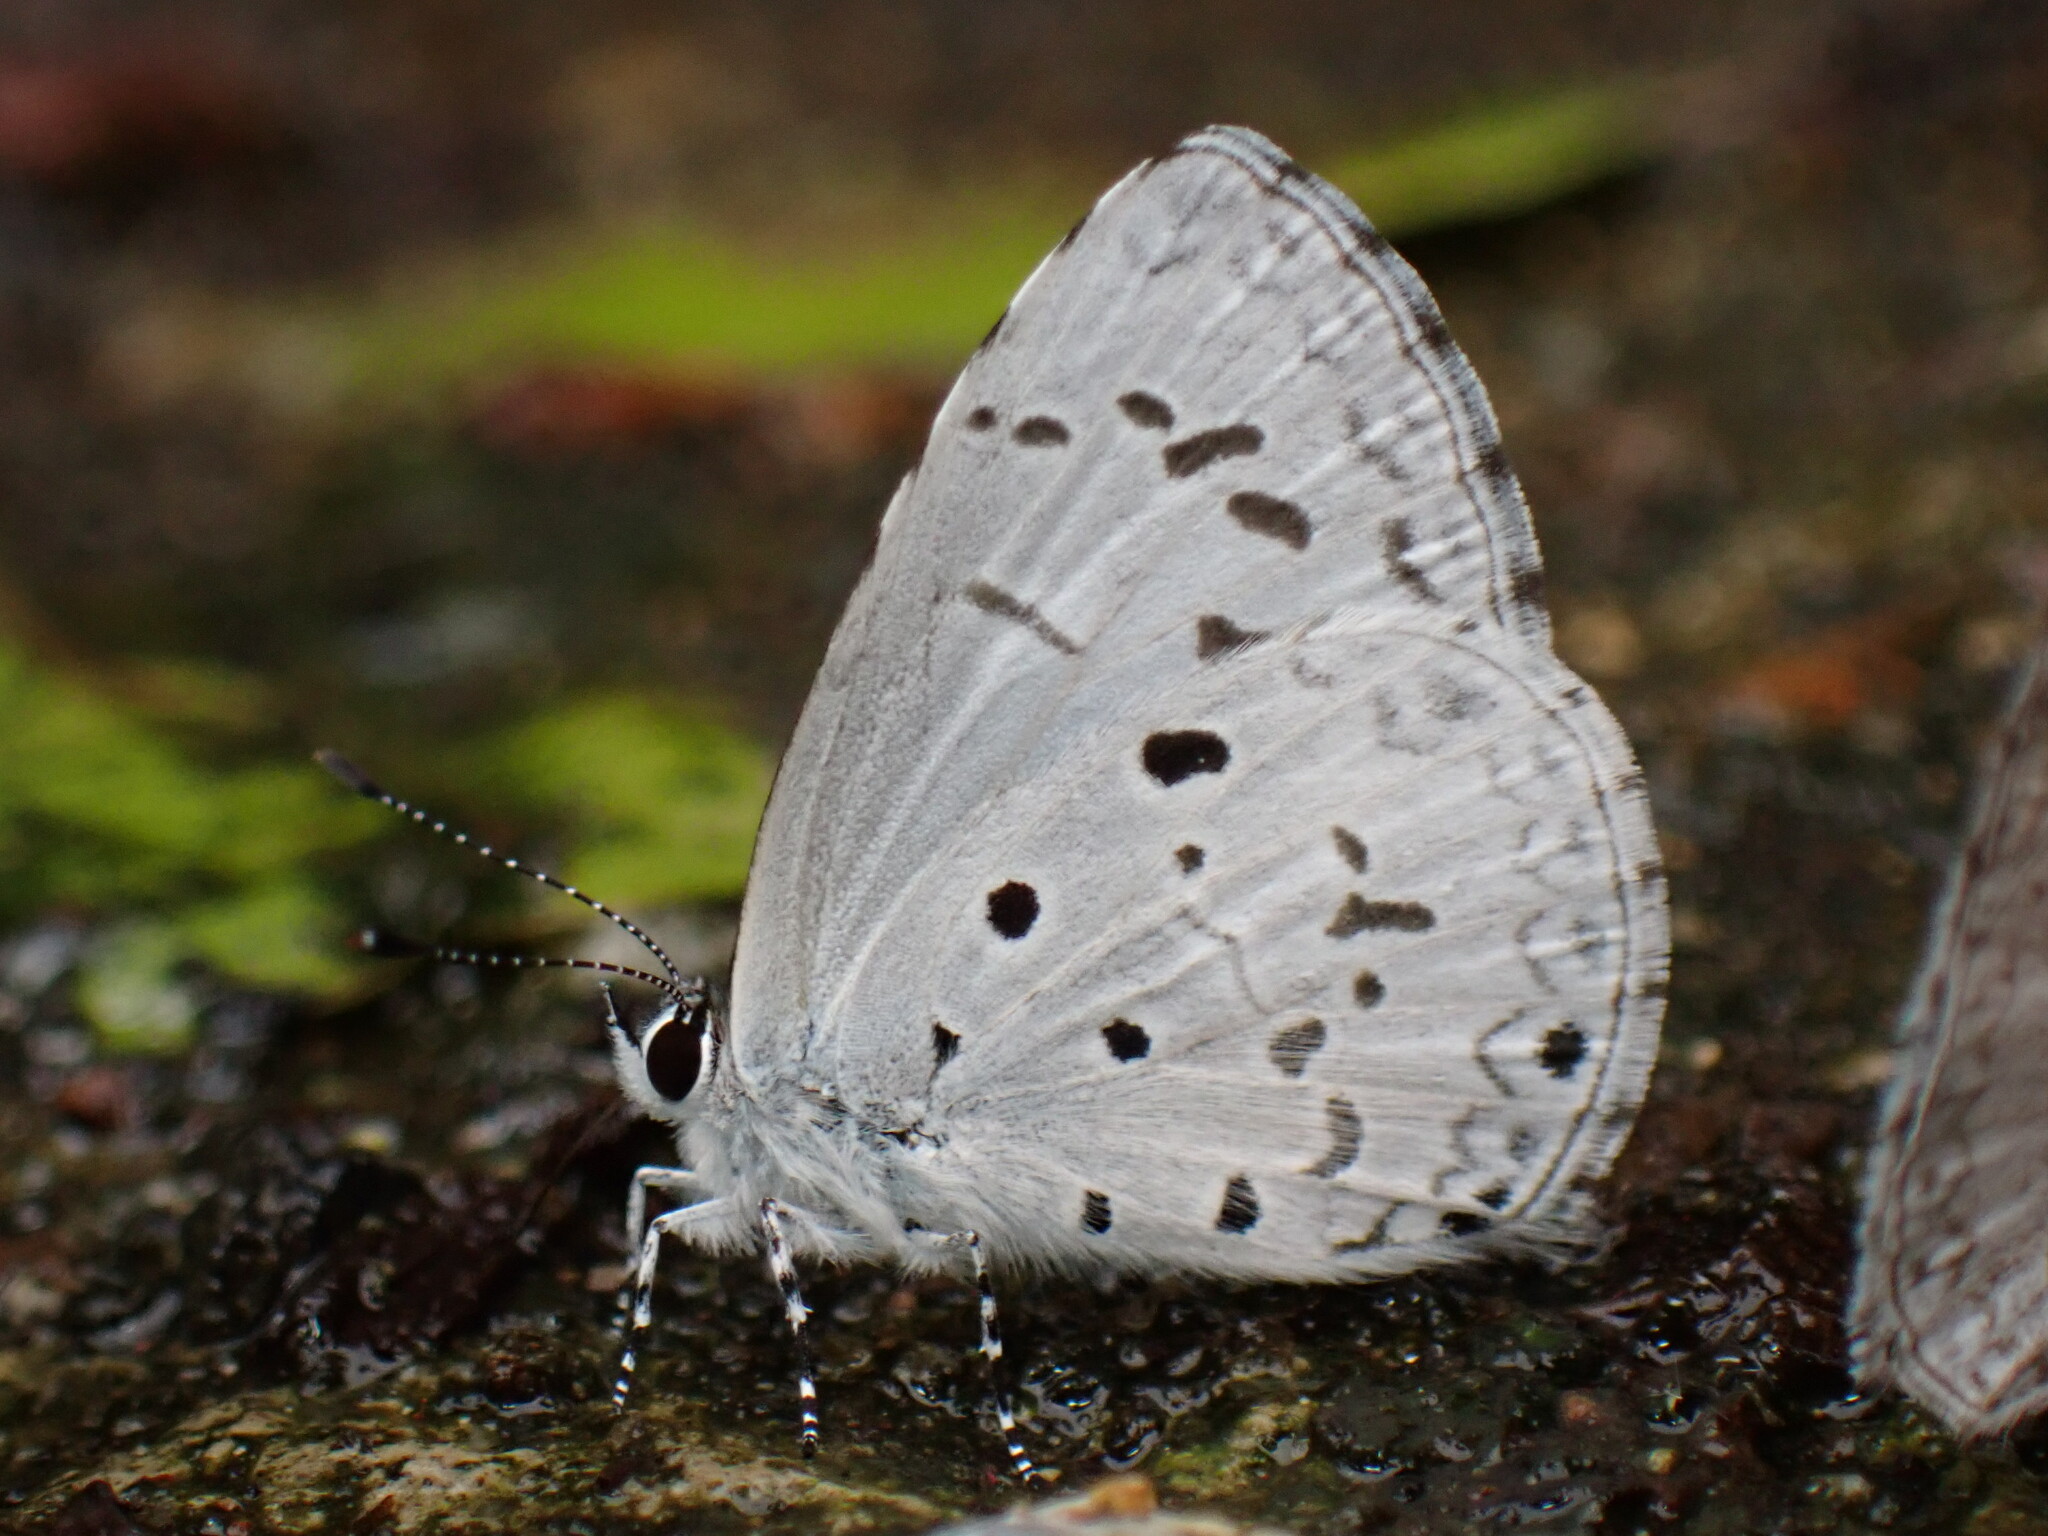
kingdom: Animalia
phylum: Arthropoda
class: Insecta
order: Lepidoptera
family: Lycaenidae
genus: Acytolepis
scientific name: Acytolepis puspa
